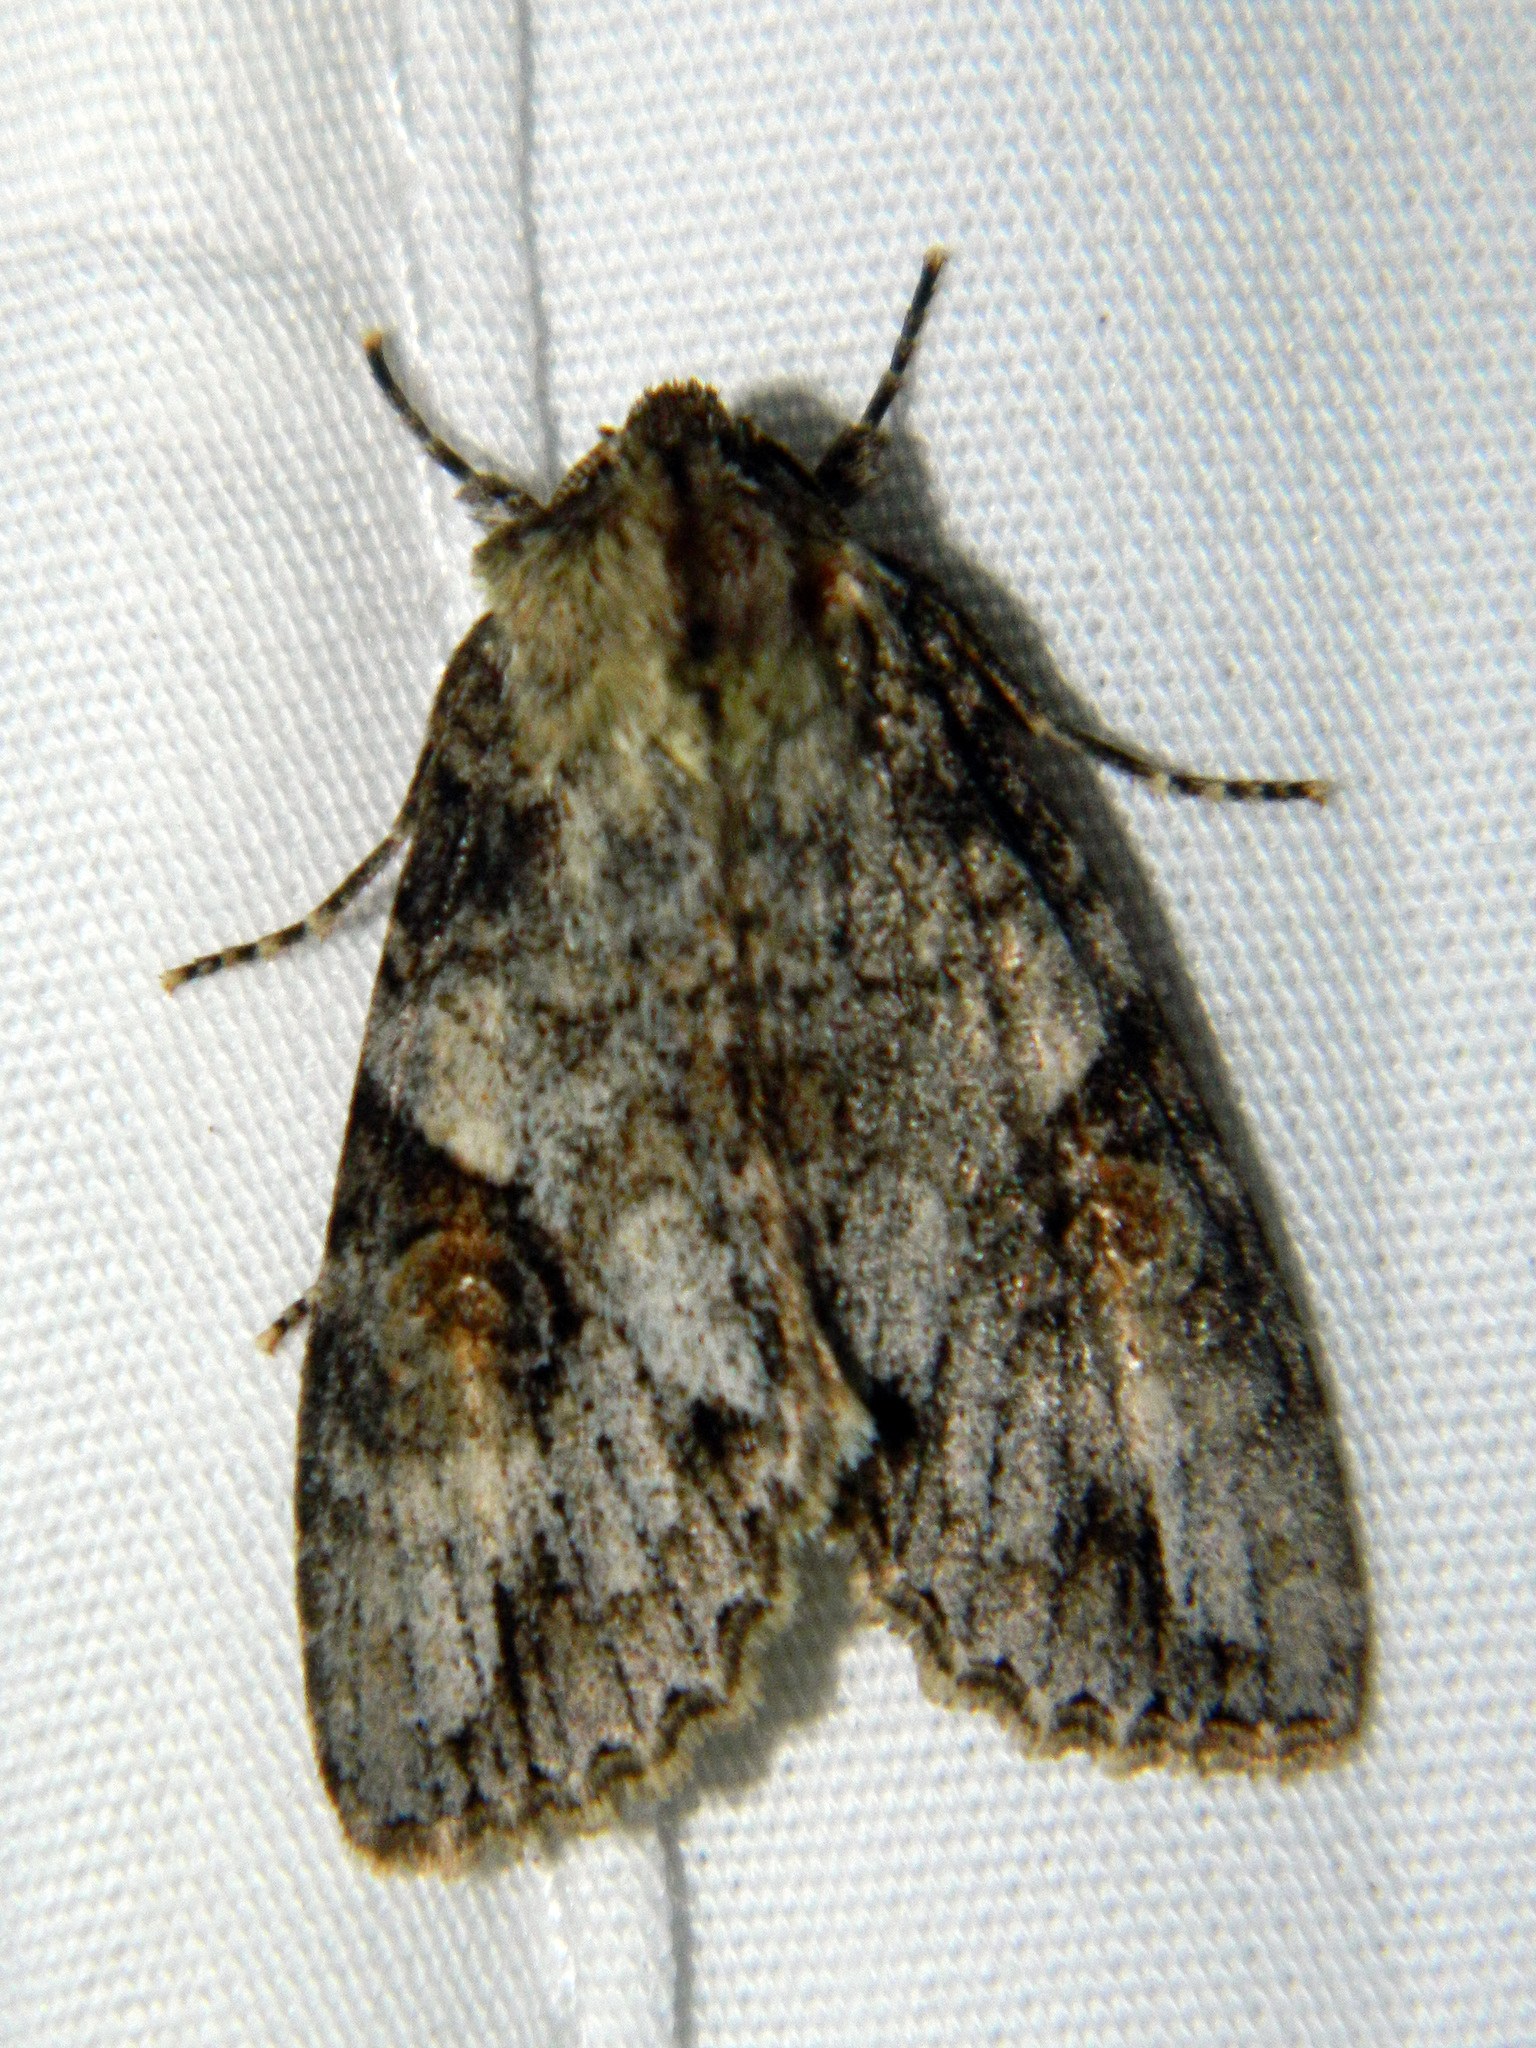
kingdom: Animalia
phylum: Arthropoda
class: Insecta
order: Lepidoptera
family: Noctuidae
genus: Achatia
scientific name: Achatia latex
